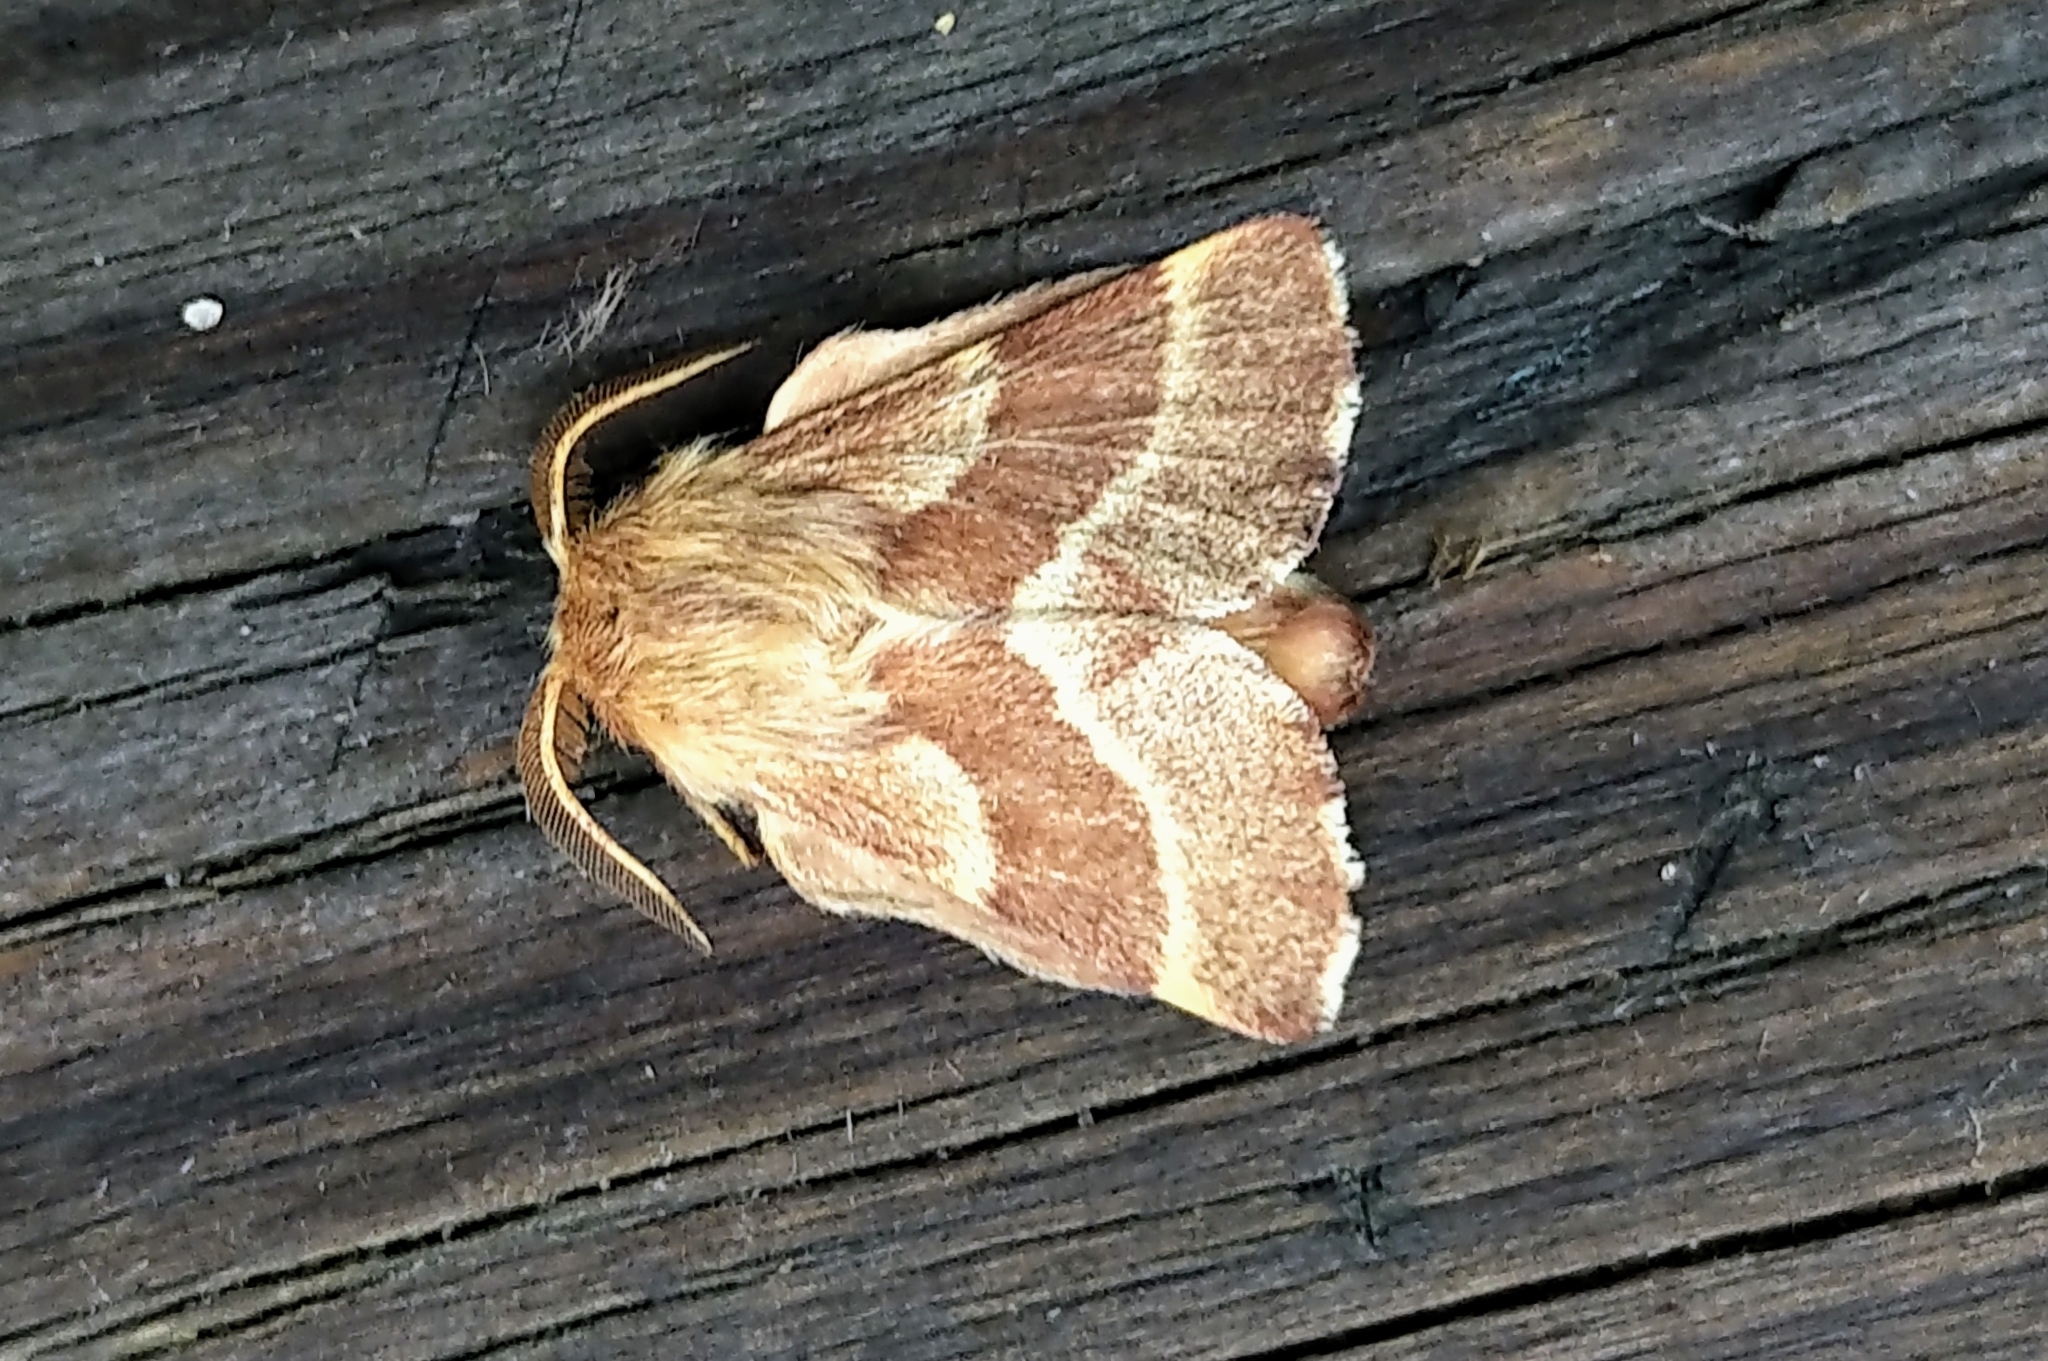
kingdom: Animalia
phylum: Arthropoda
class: Insecta
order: Lepidoptera
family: Lasiocampidae
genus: Malacosoma
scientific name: Malacosoma californica
